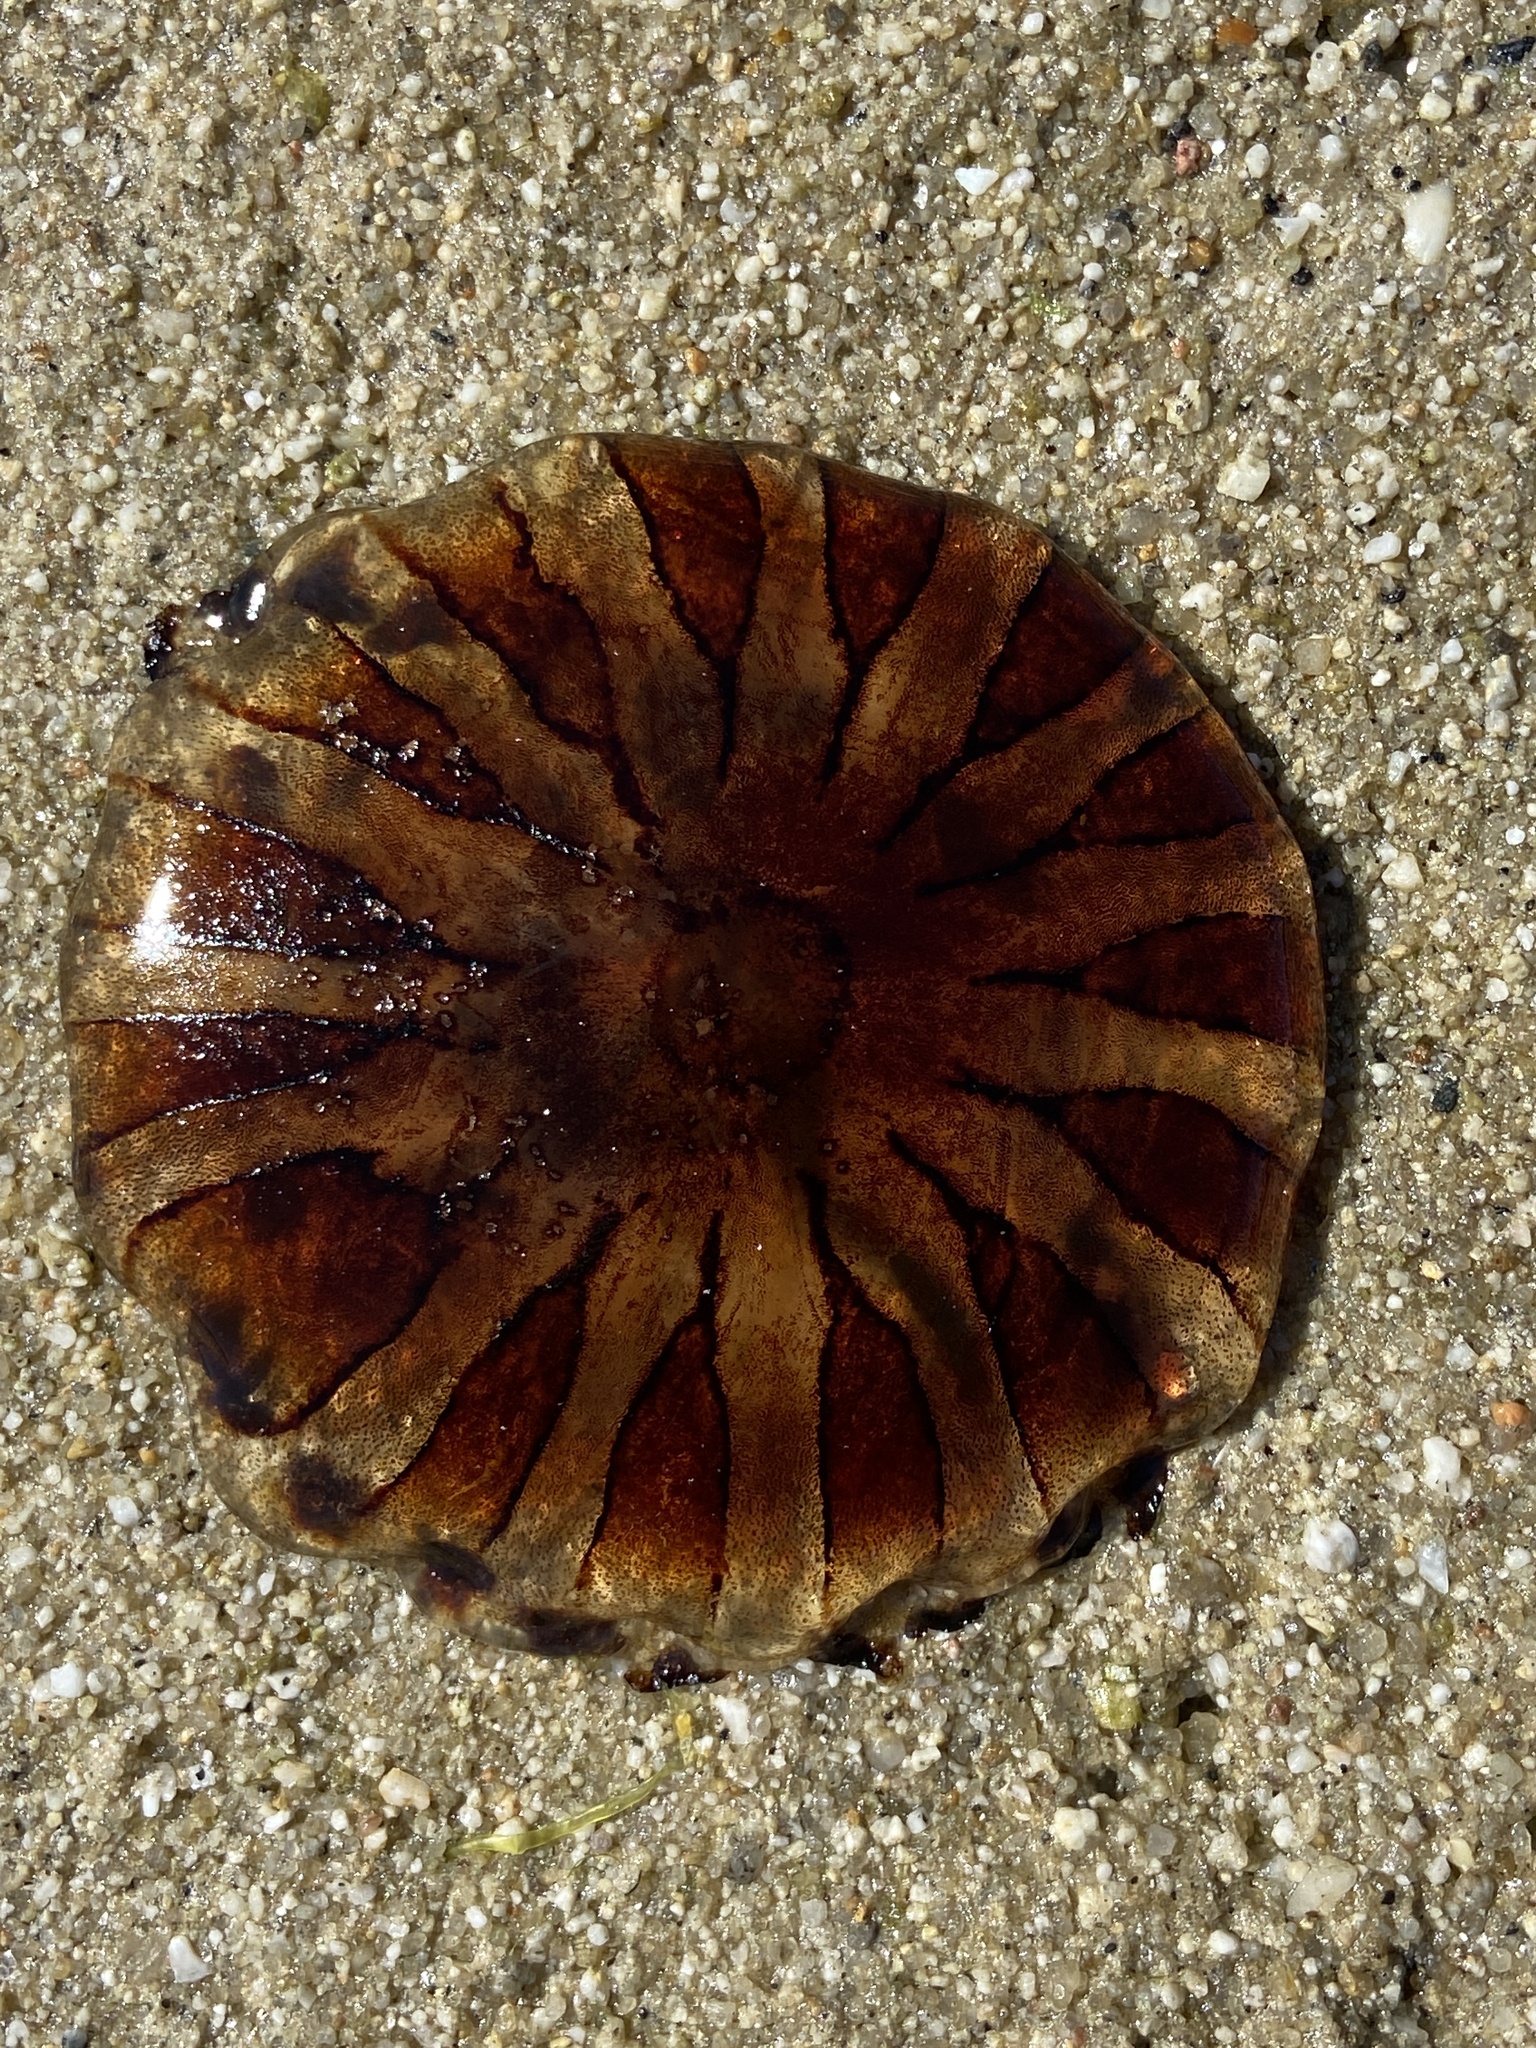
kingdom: Animalia
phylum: Cnidaria
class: Scyphozoa
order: Semaeostomeae
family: Pelagiidae
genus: Chrysaora
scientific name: Chrysaora hysoscella
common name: Compass jellyfish
